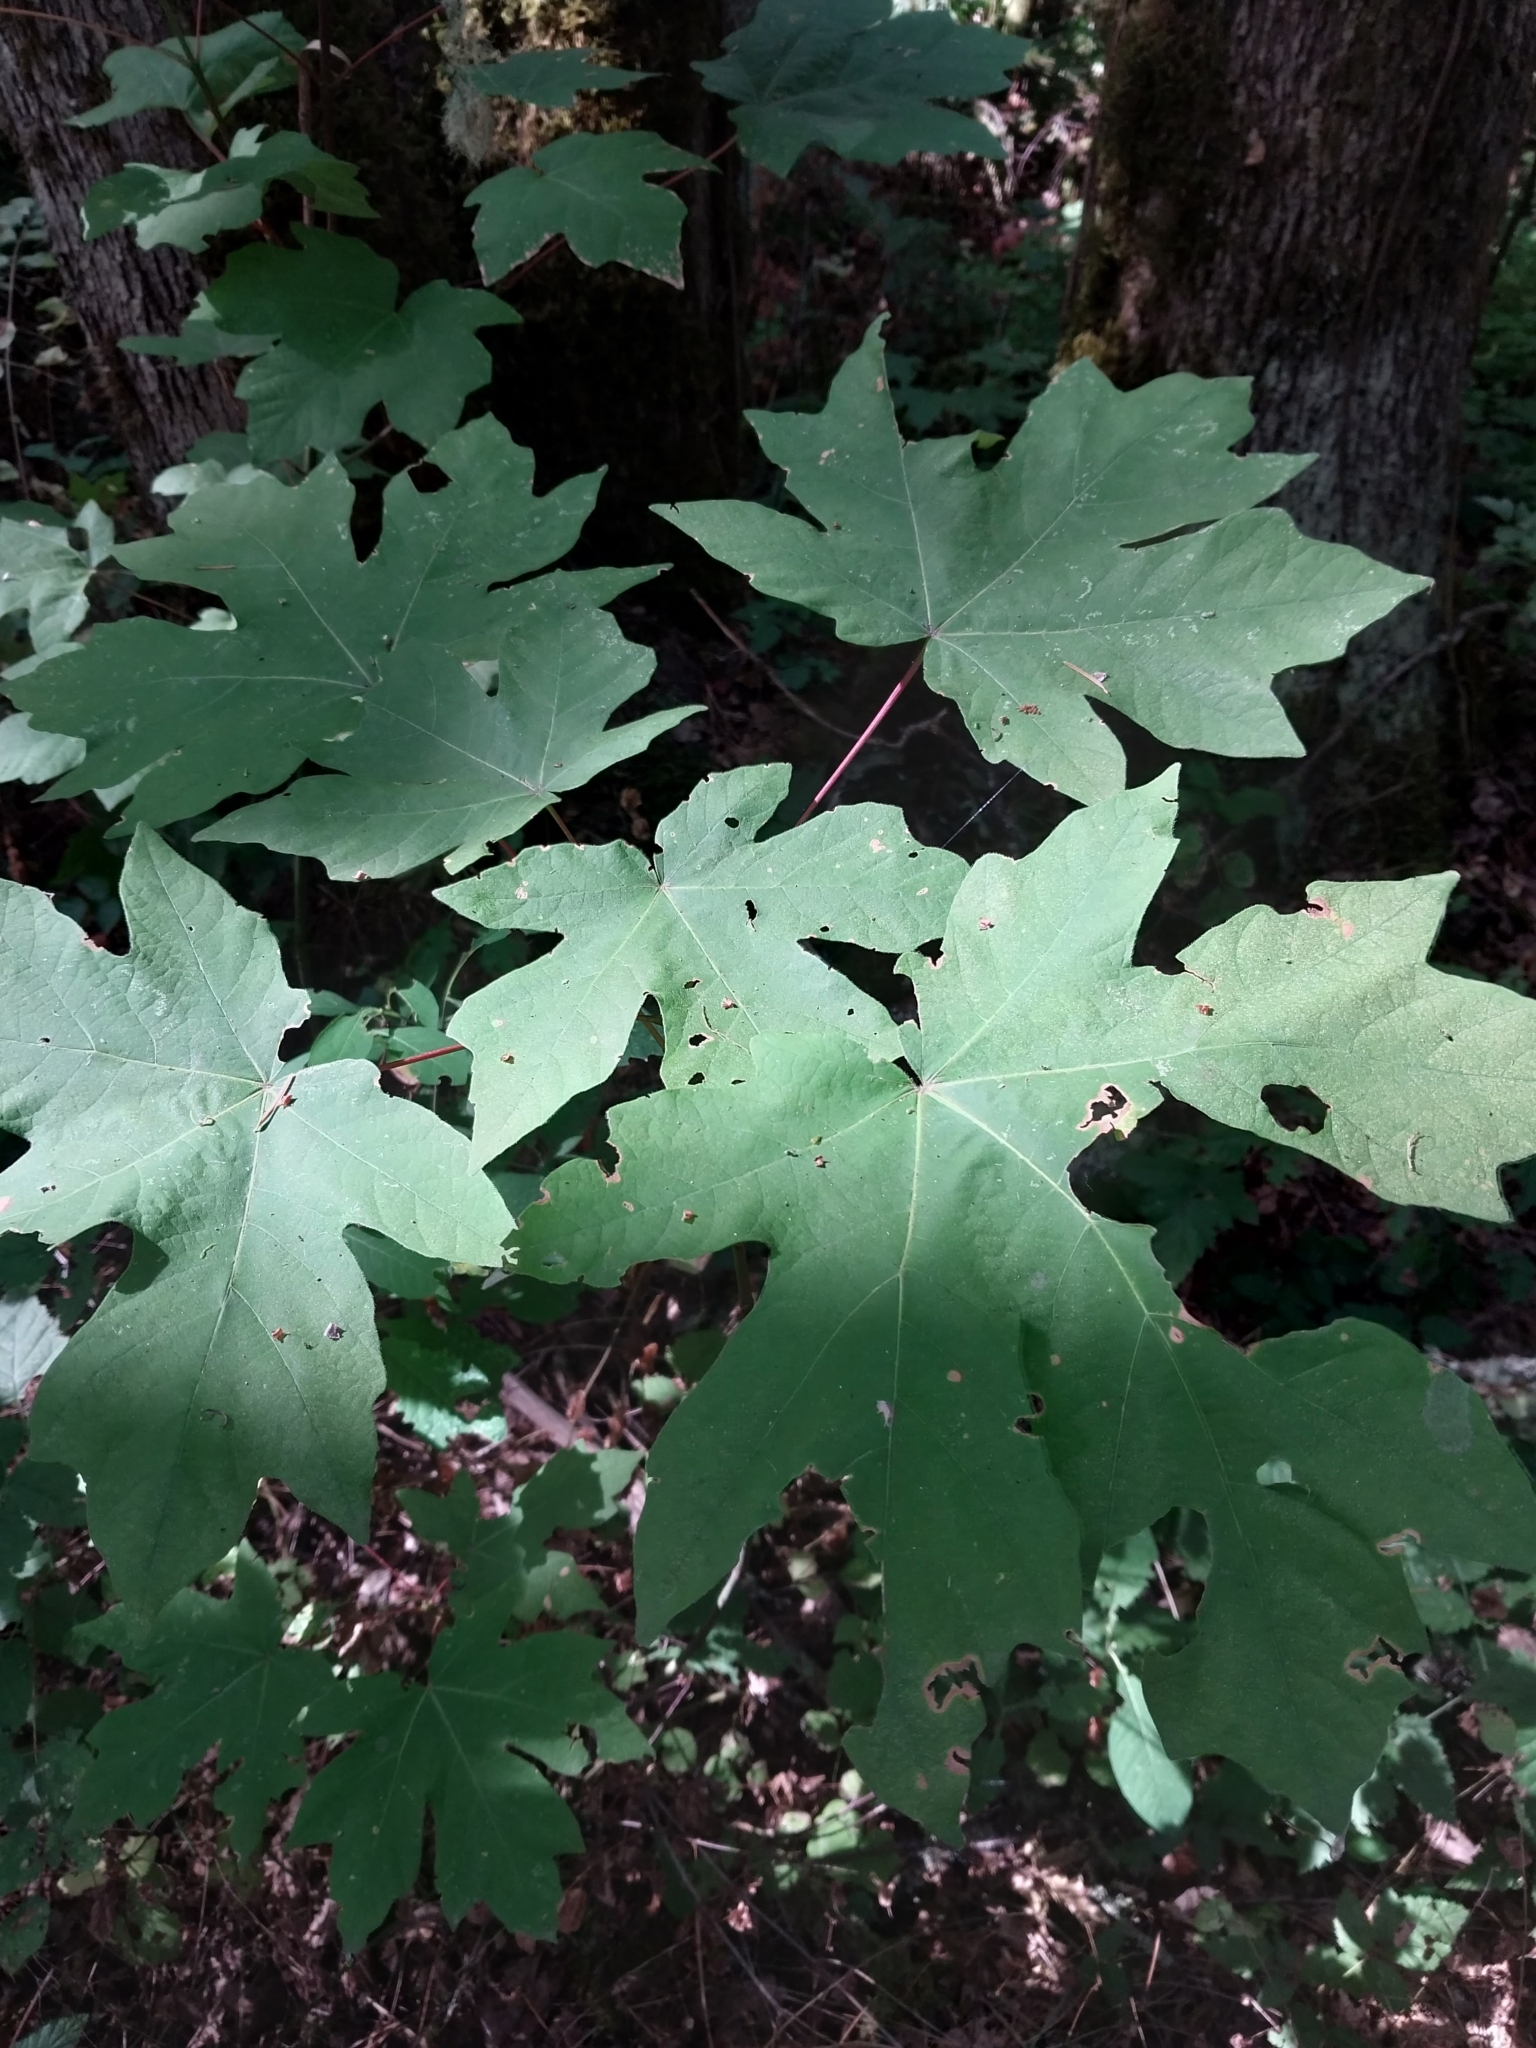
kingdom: Plantae
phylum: Tracheophyta
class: Magnoliopsida
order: Sapindales
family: Sapindaceae
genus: Acer
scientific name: Acer macrophyllum
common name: Oregon maple
